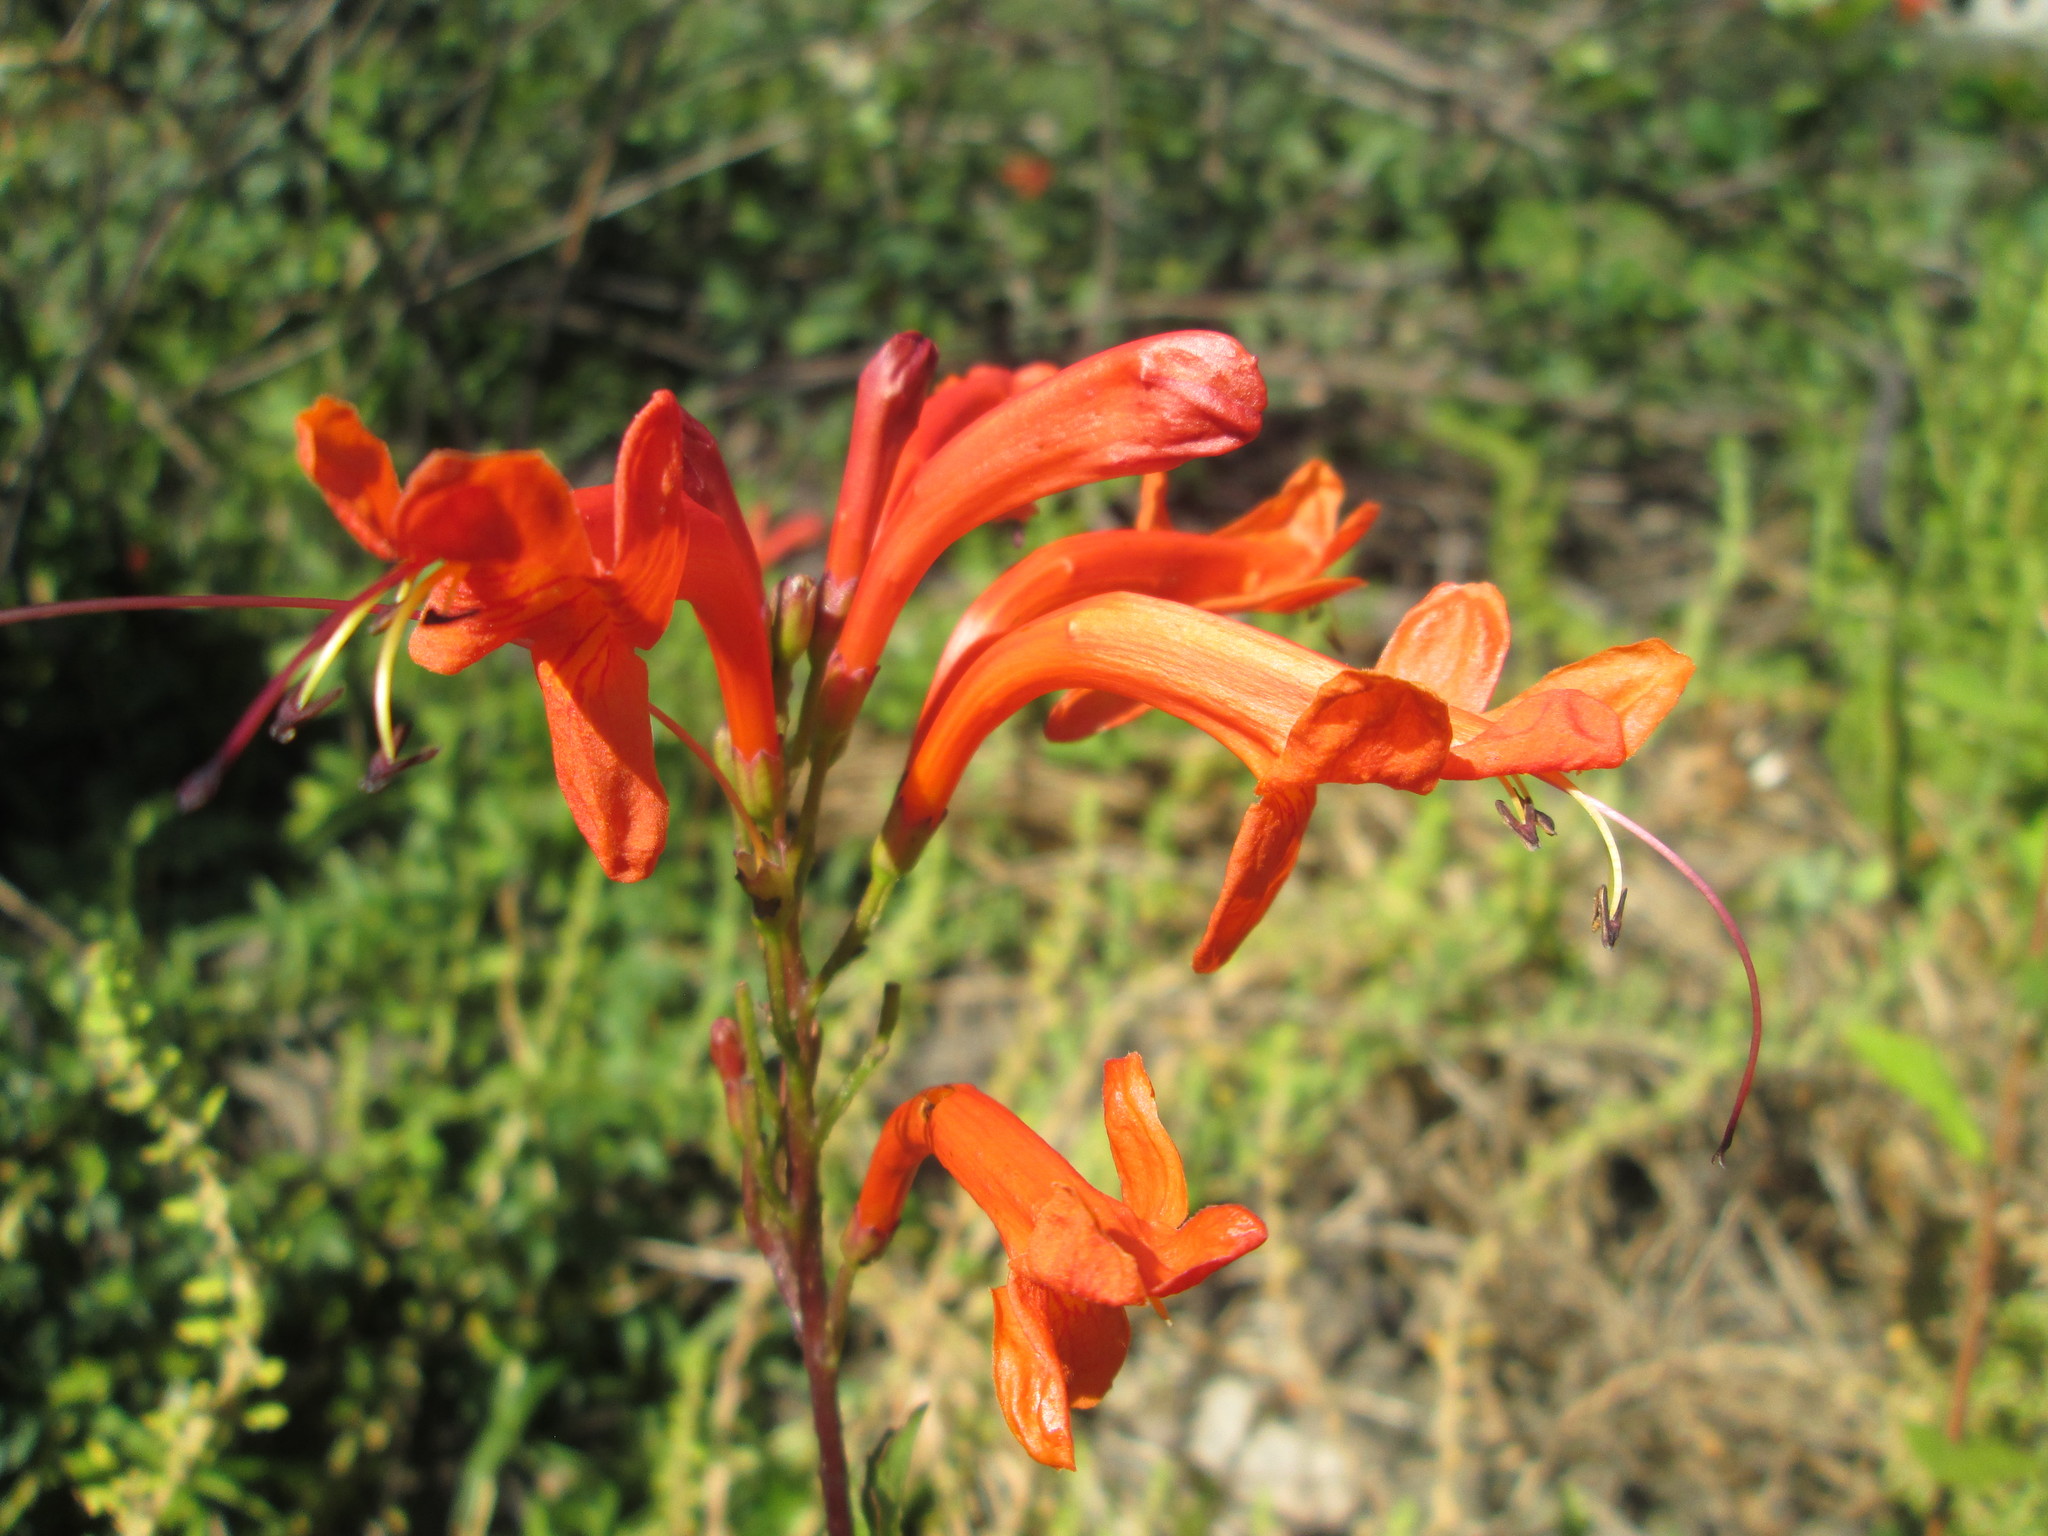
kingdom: Plantae
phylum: Tracheophyta
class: Magnoliopsida
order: Lamiales
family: Bignoniaceae
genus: Tecomaria
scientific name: Tecomaria capensis
